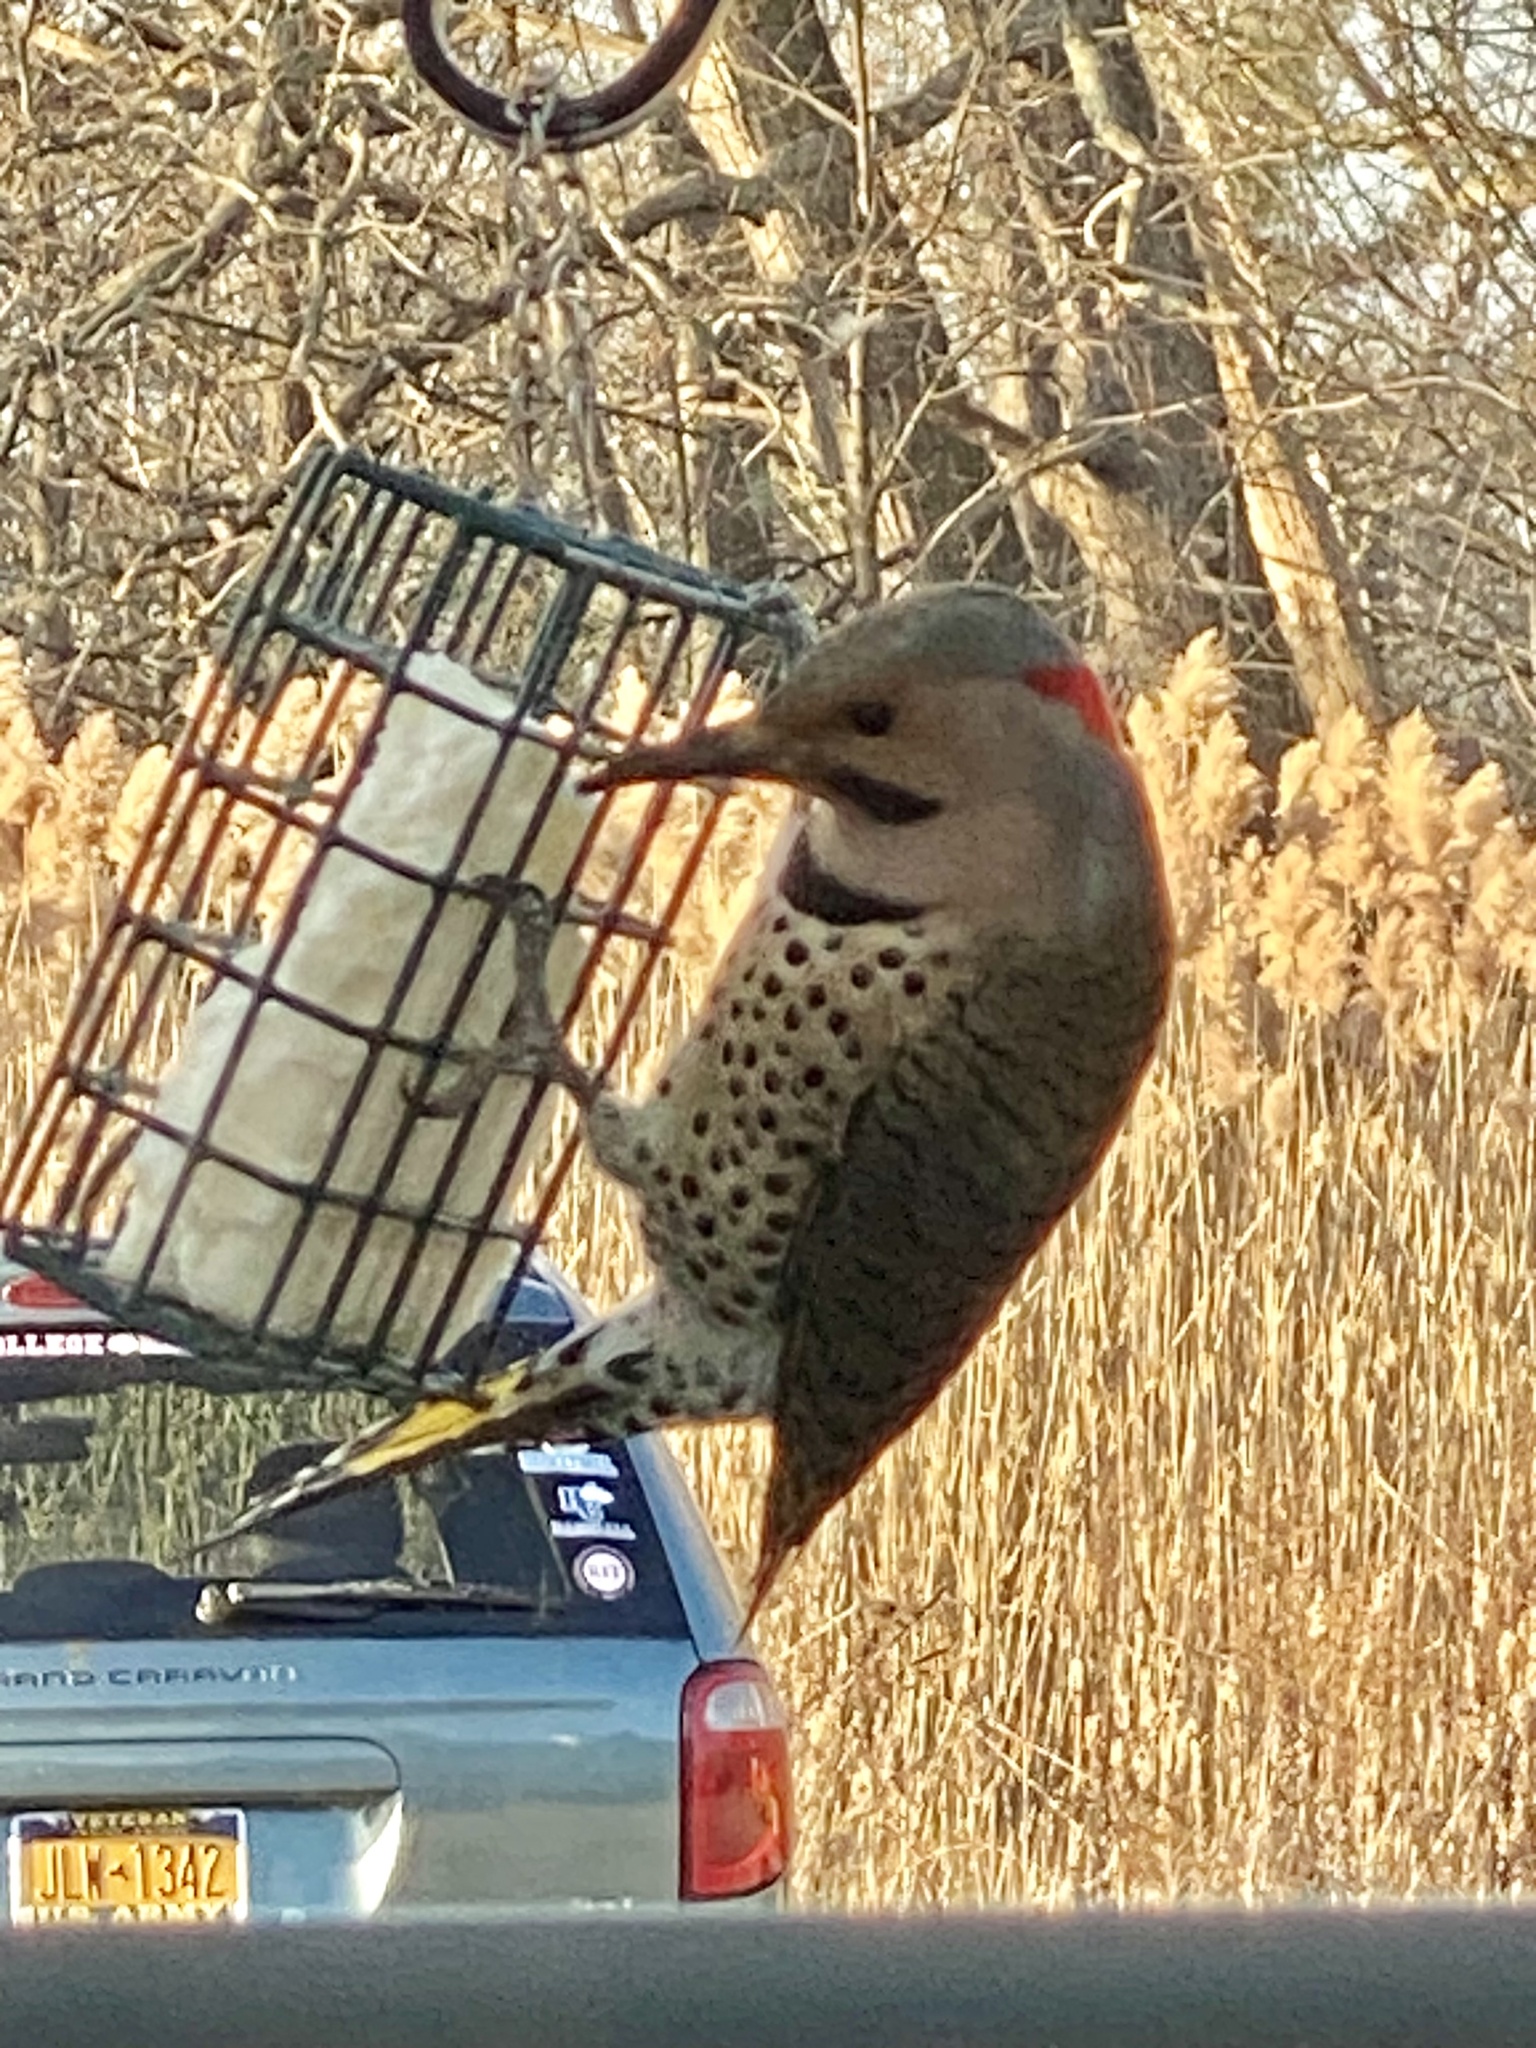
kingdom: Animalia
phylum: Chordata
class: Aves
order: Piciformes
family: Picidae
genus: Colaptes
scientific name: Colaptes auratus
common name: Northern flicker
